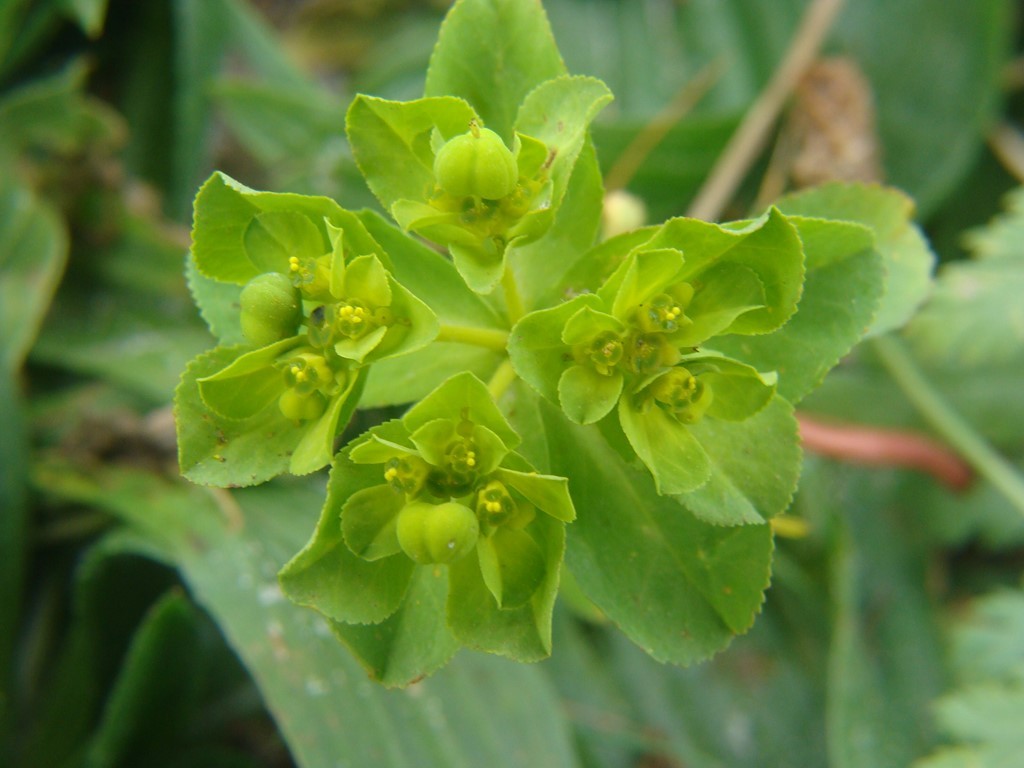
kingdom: Plantae
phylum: Tracheophyta
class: Magnoliopsida
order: Malpighiales
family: Euphorbiaceae
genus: Euphorbia
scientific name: Euphorbia helioscopia
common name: Sun spurge
